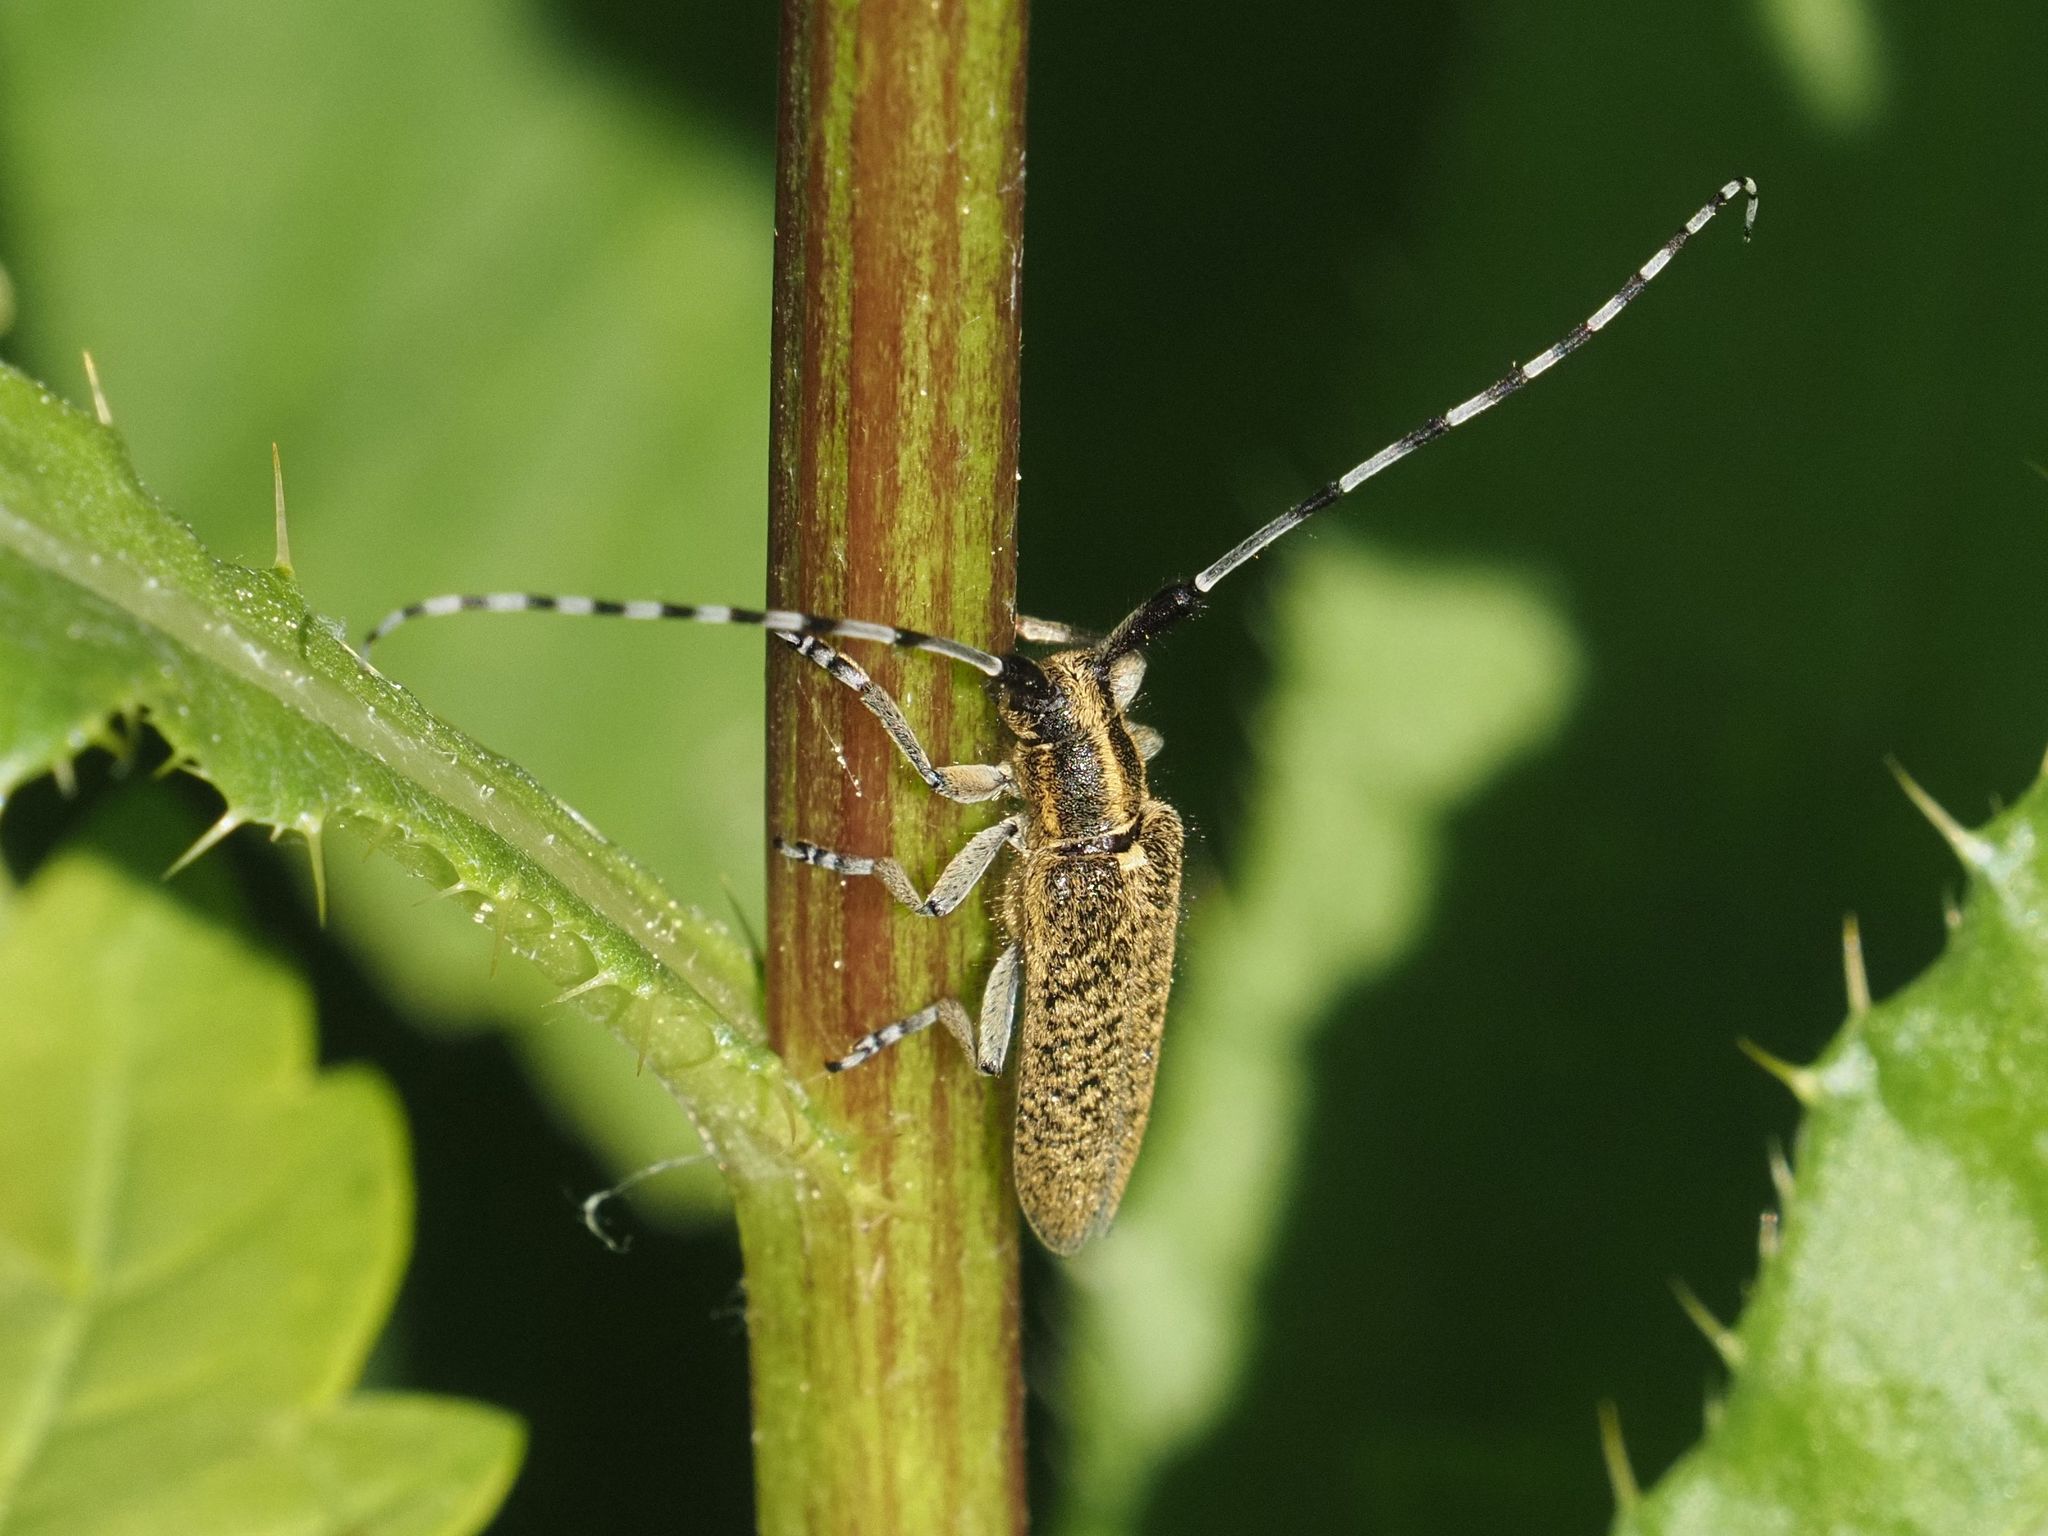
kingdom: Animalia
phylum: Arthropoda
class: Insecta
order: Coleoptera
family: Cerambycidae
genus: Agapanthia
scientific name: Agapanthia villosoviridescens
